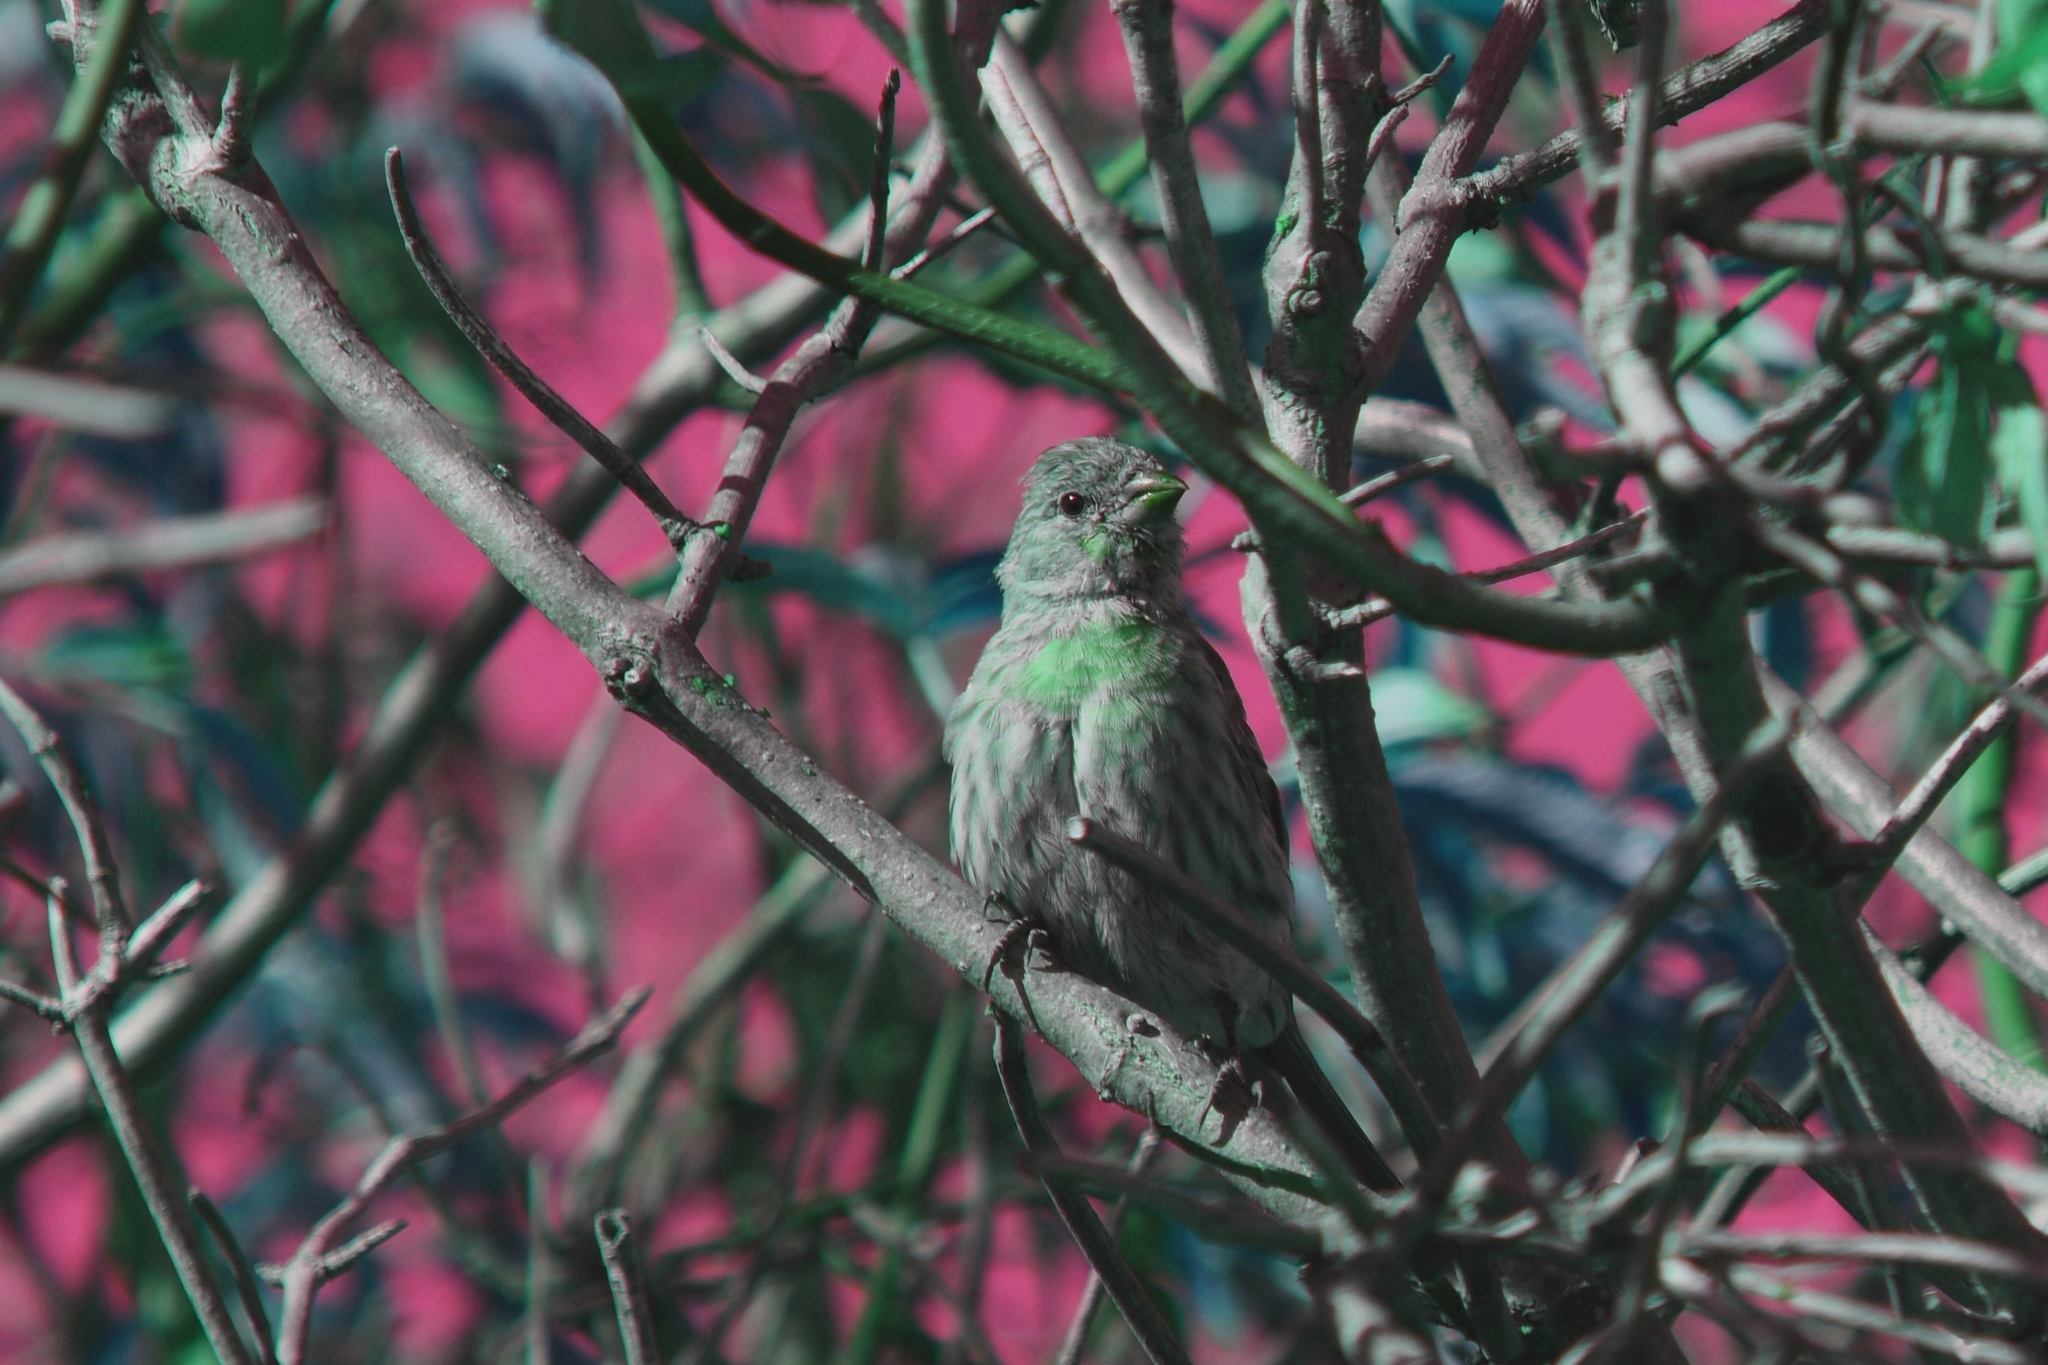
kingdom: Animalia
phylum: Chordata
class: Aves
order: Passeriformes
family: Fringillidae
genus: Haemorhous
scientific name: Haemorhous mexicanus
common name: House finch
